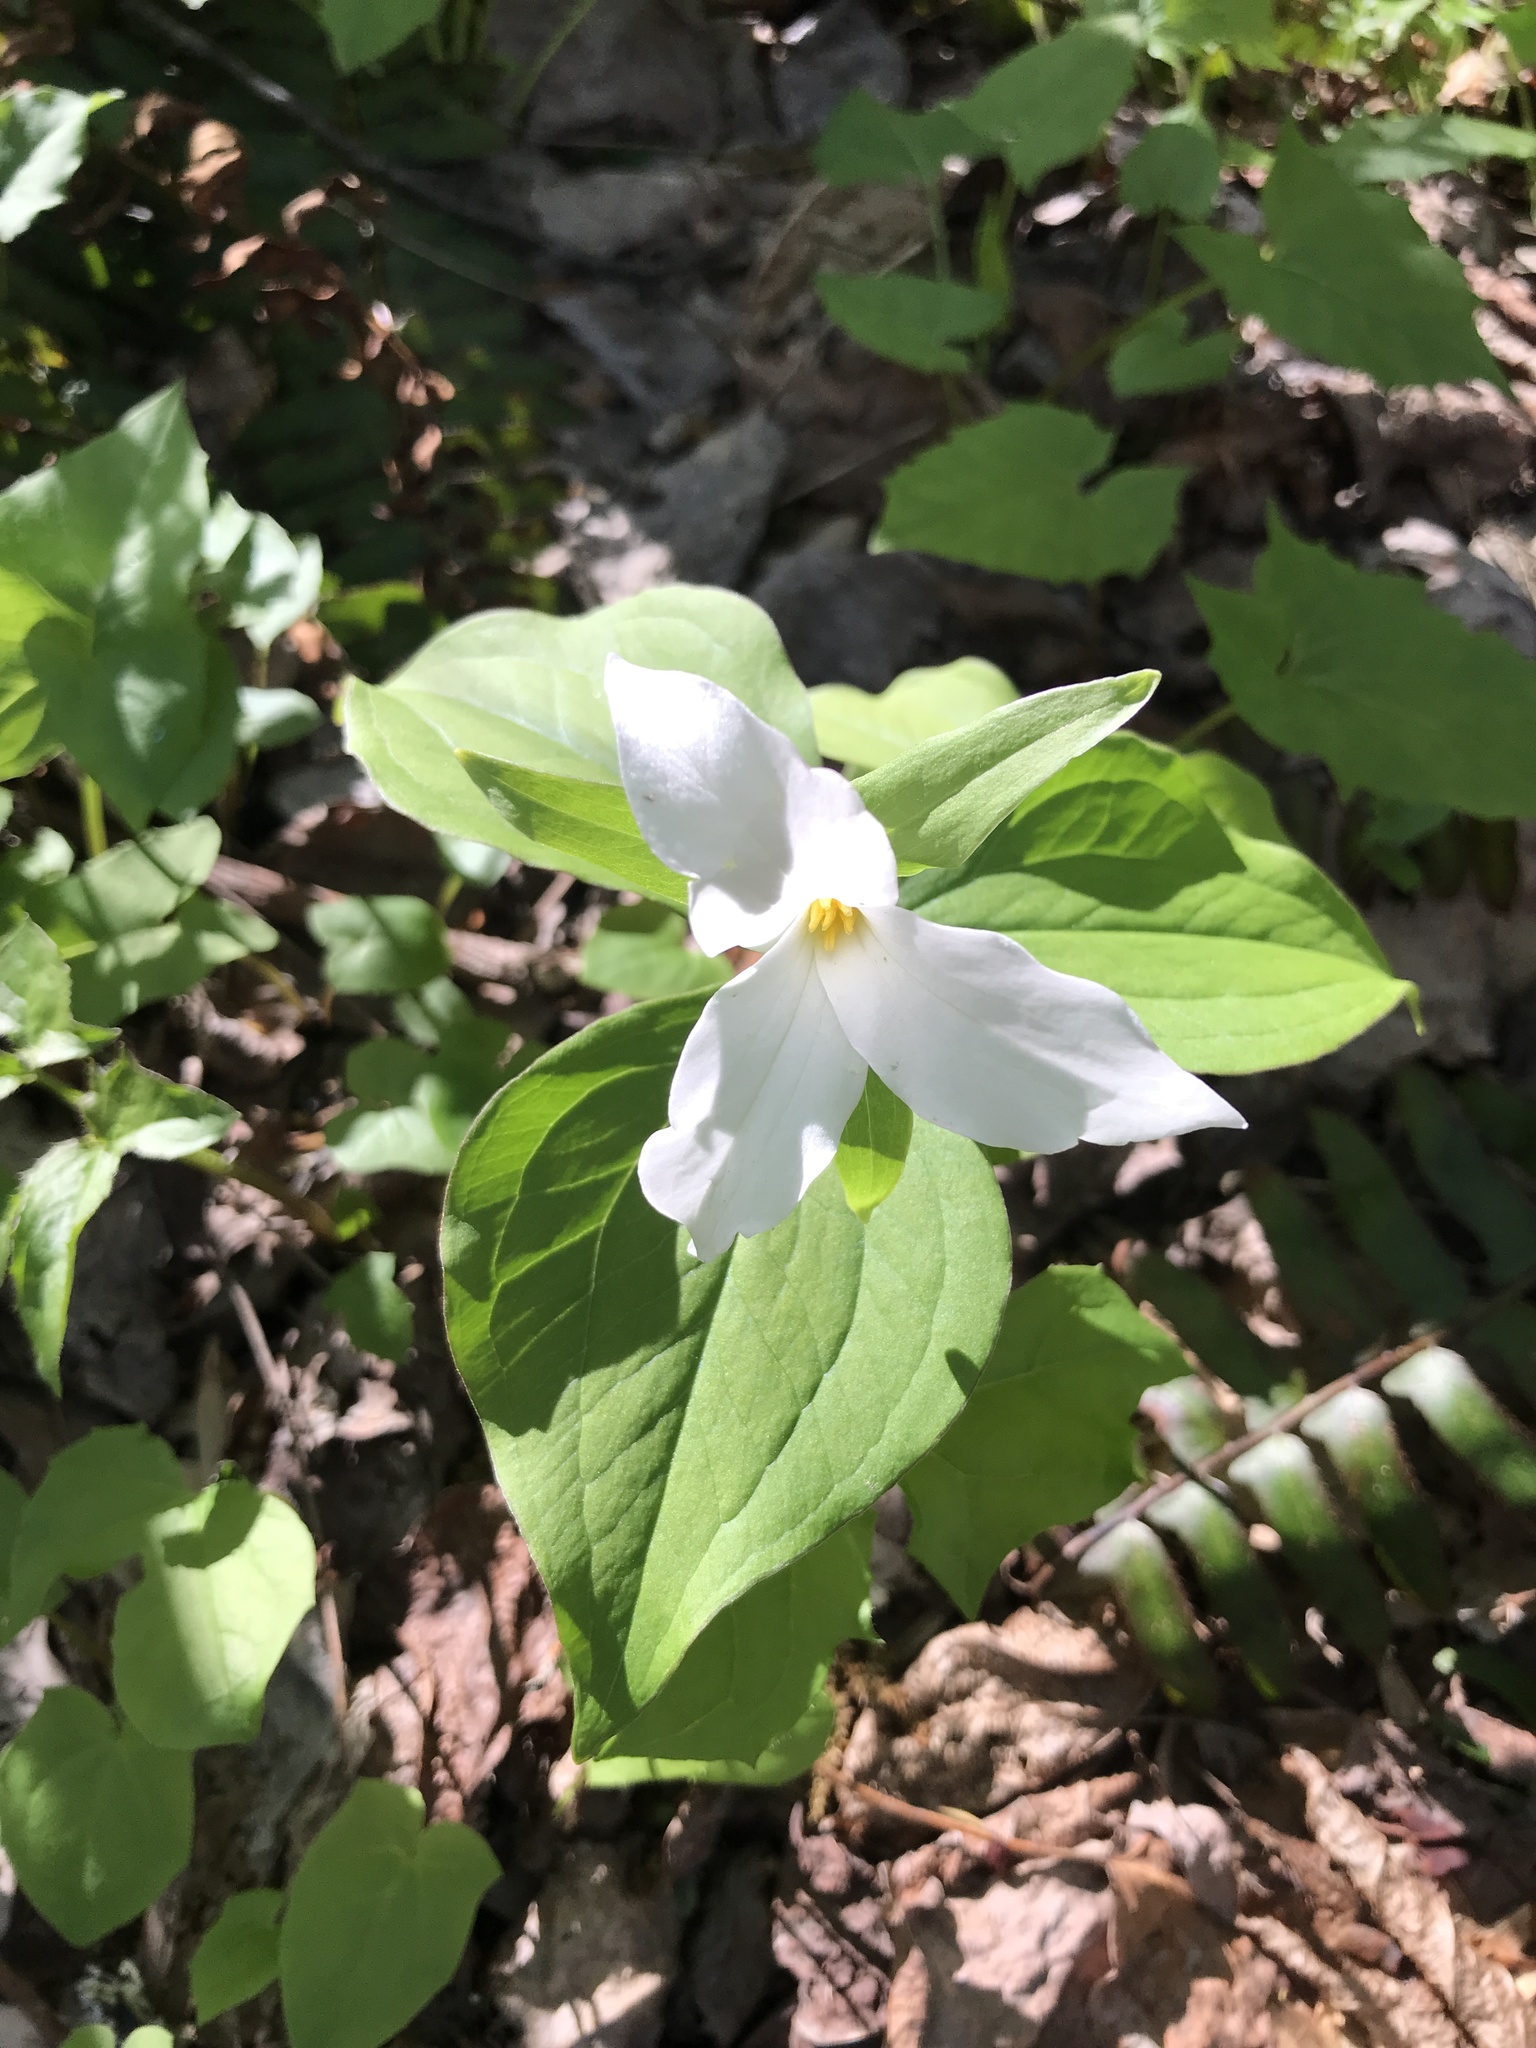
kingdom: Plantae
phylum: Tracheophyta
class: Liliopsida
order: Liliales
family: Melanthiaceae
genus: Trillium
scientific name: Trillium grandiflorum
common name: Great white trillium
